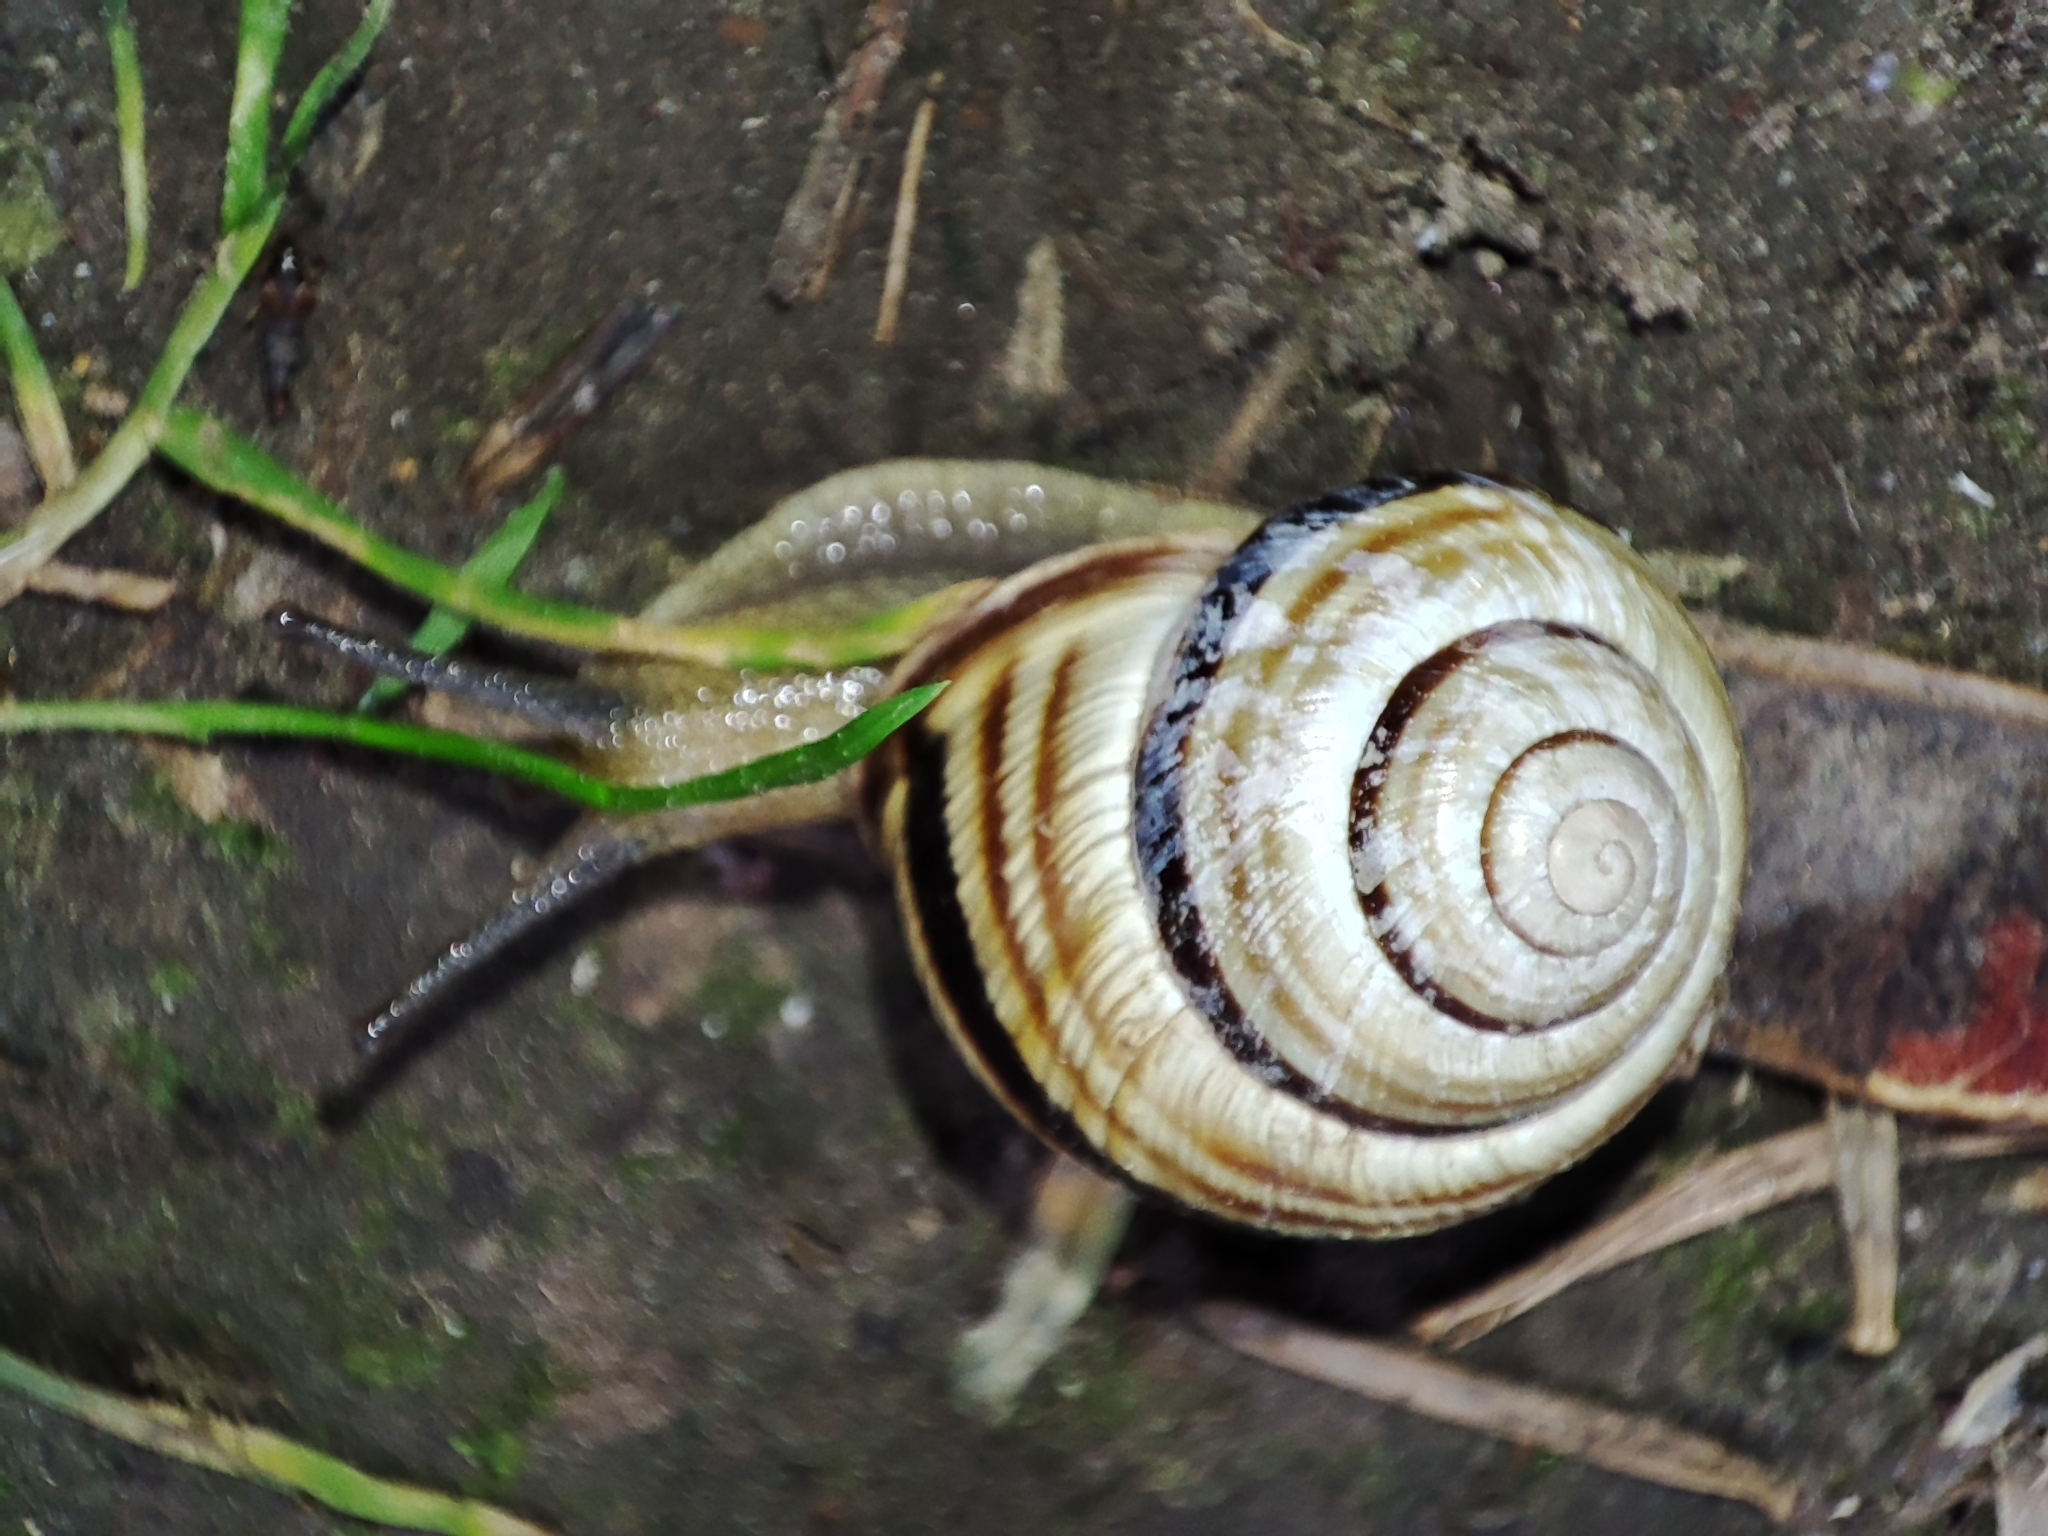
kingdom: Animalia
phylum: Mollusca
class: Gastropoda
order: Stylommatophora
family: Helicidae
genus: Caucasotachea
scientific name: Caucasotachea vindobonensis
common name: European helicid land snail
